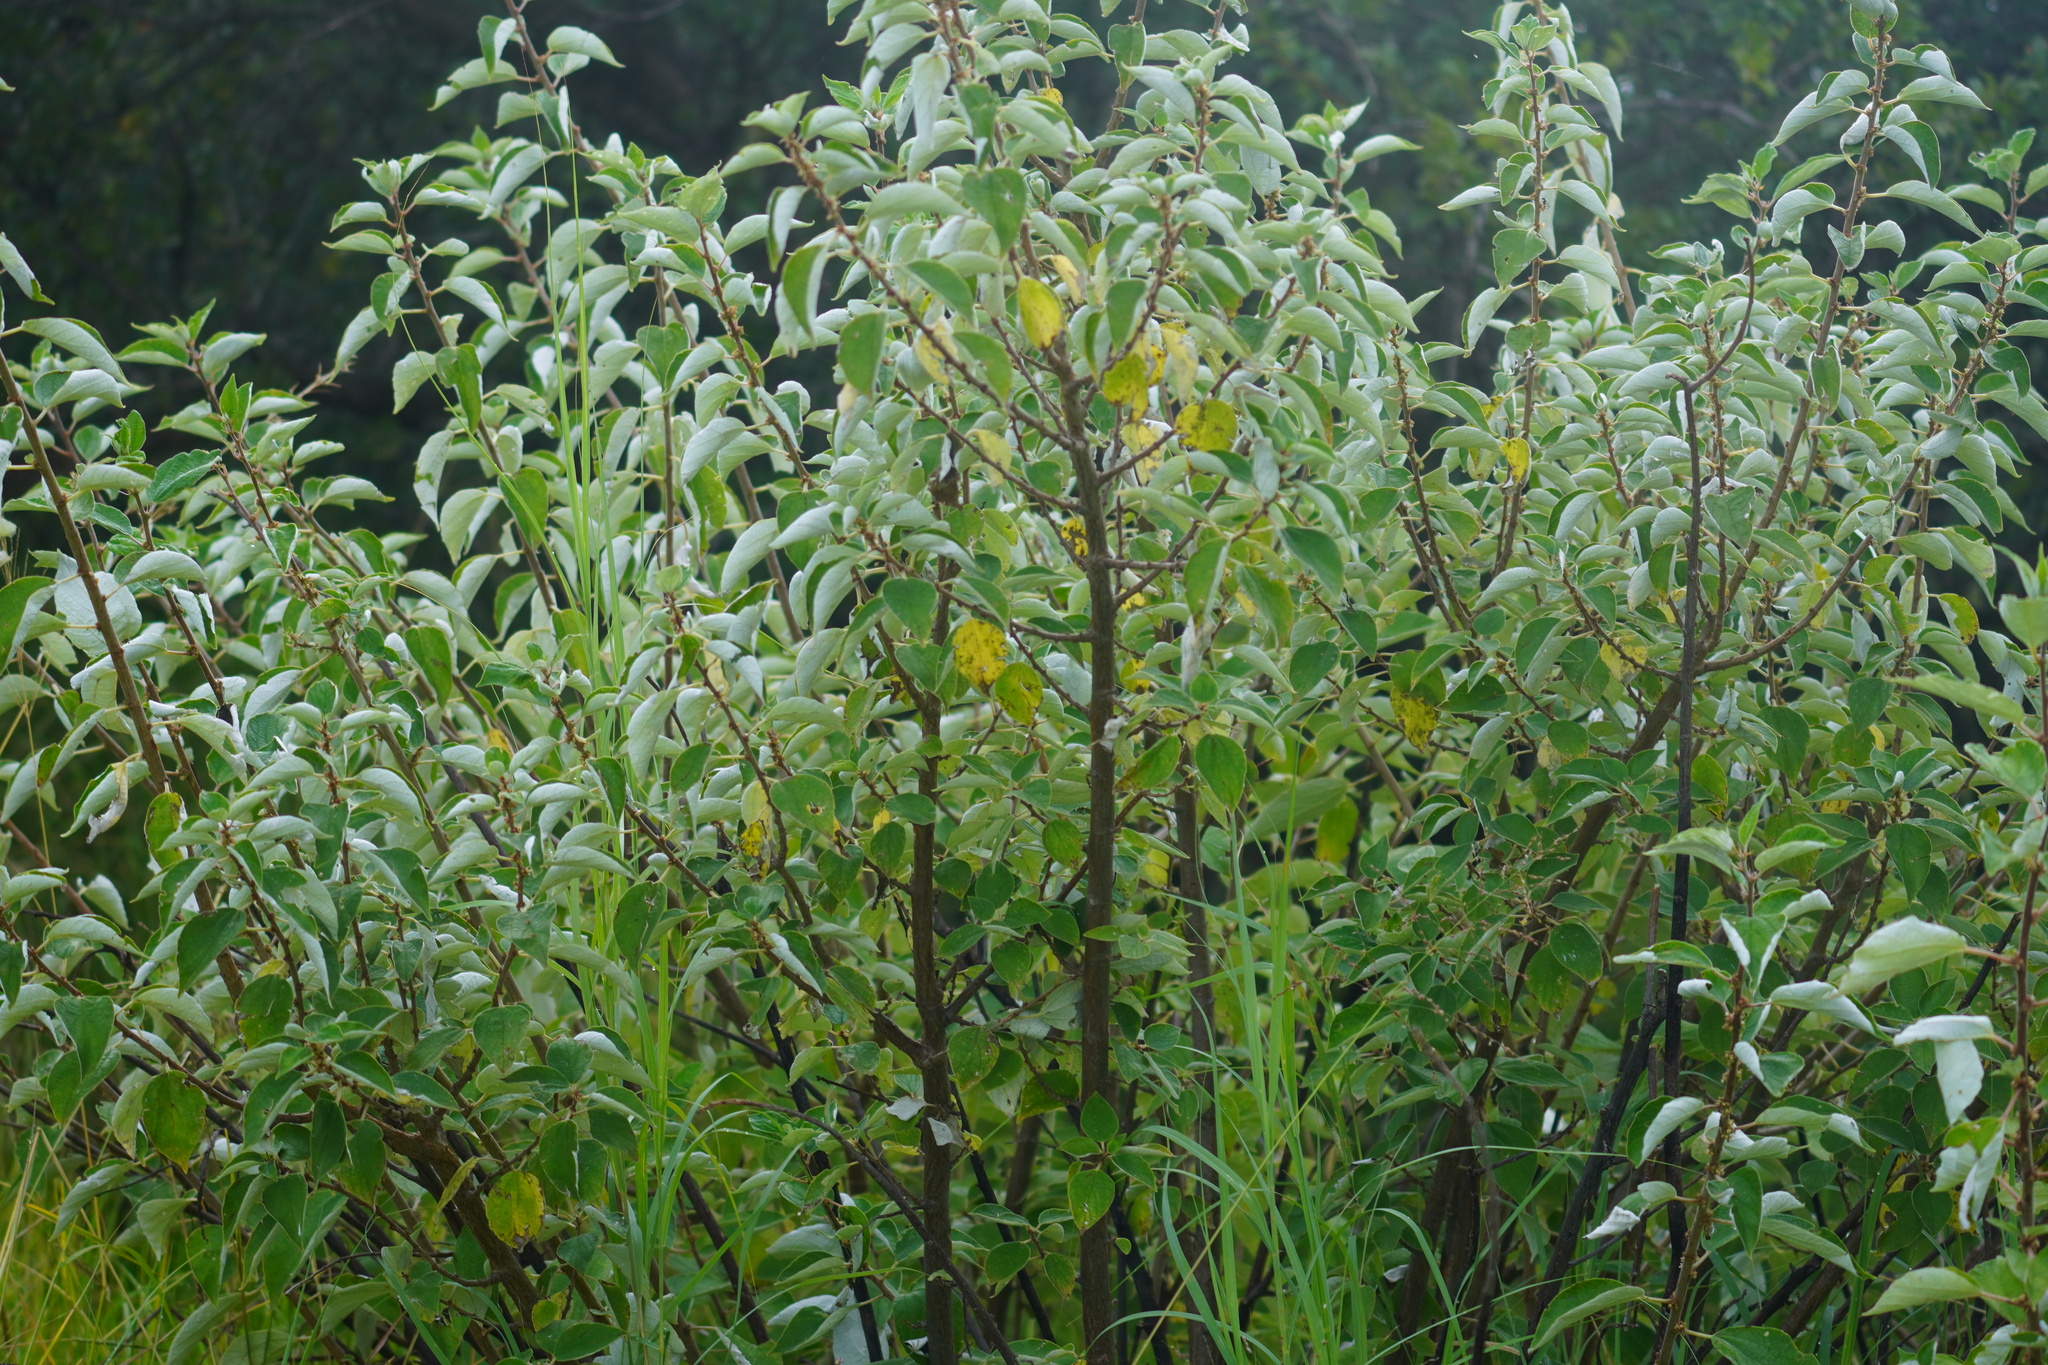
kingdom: Plantae
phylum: Tracheophyta
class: Magnoliopsida
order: Rosales
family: Urticaceae
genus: Pouzolzia
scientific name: Pouzolzia mixta
